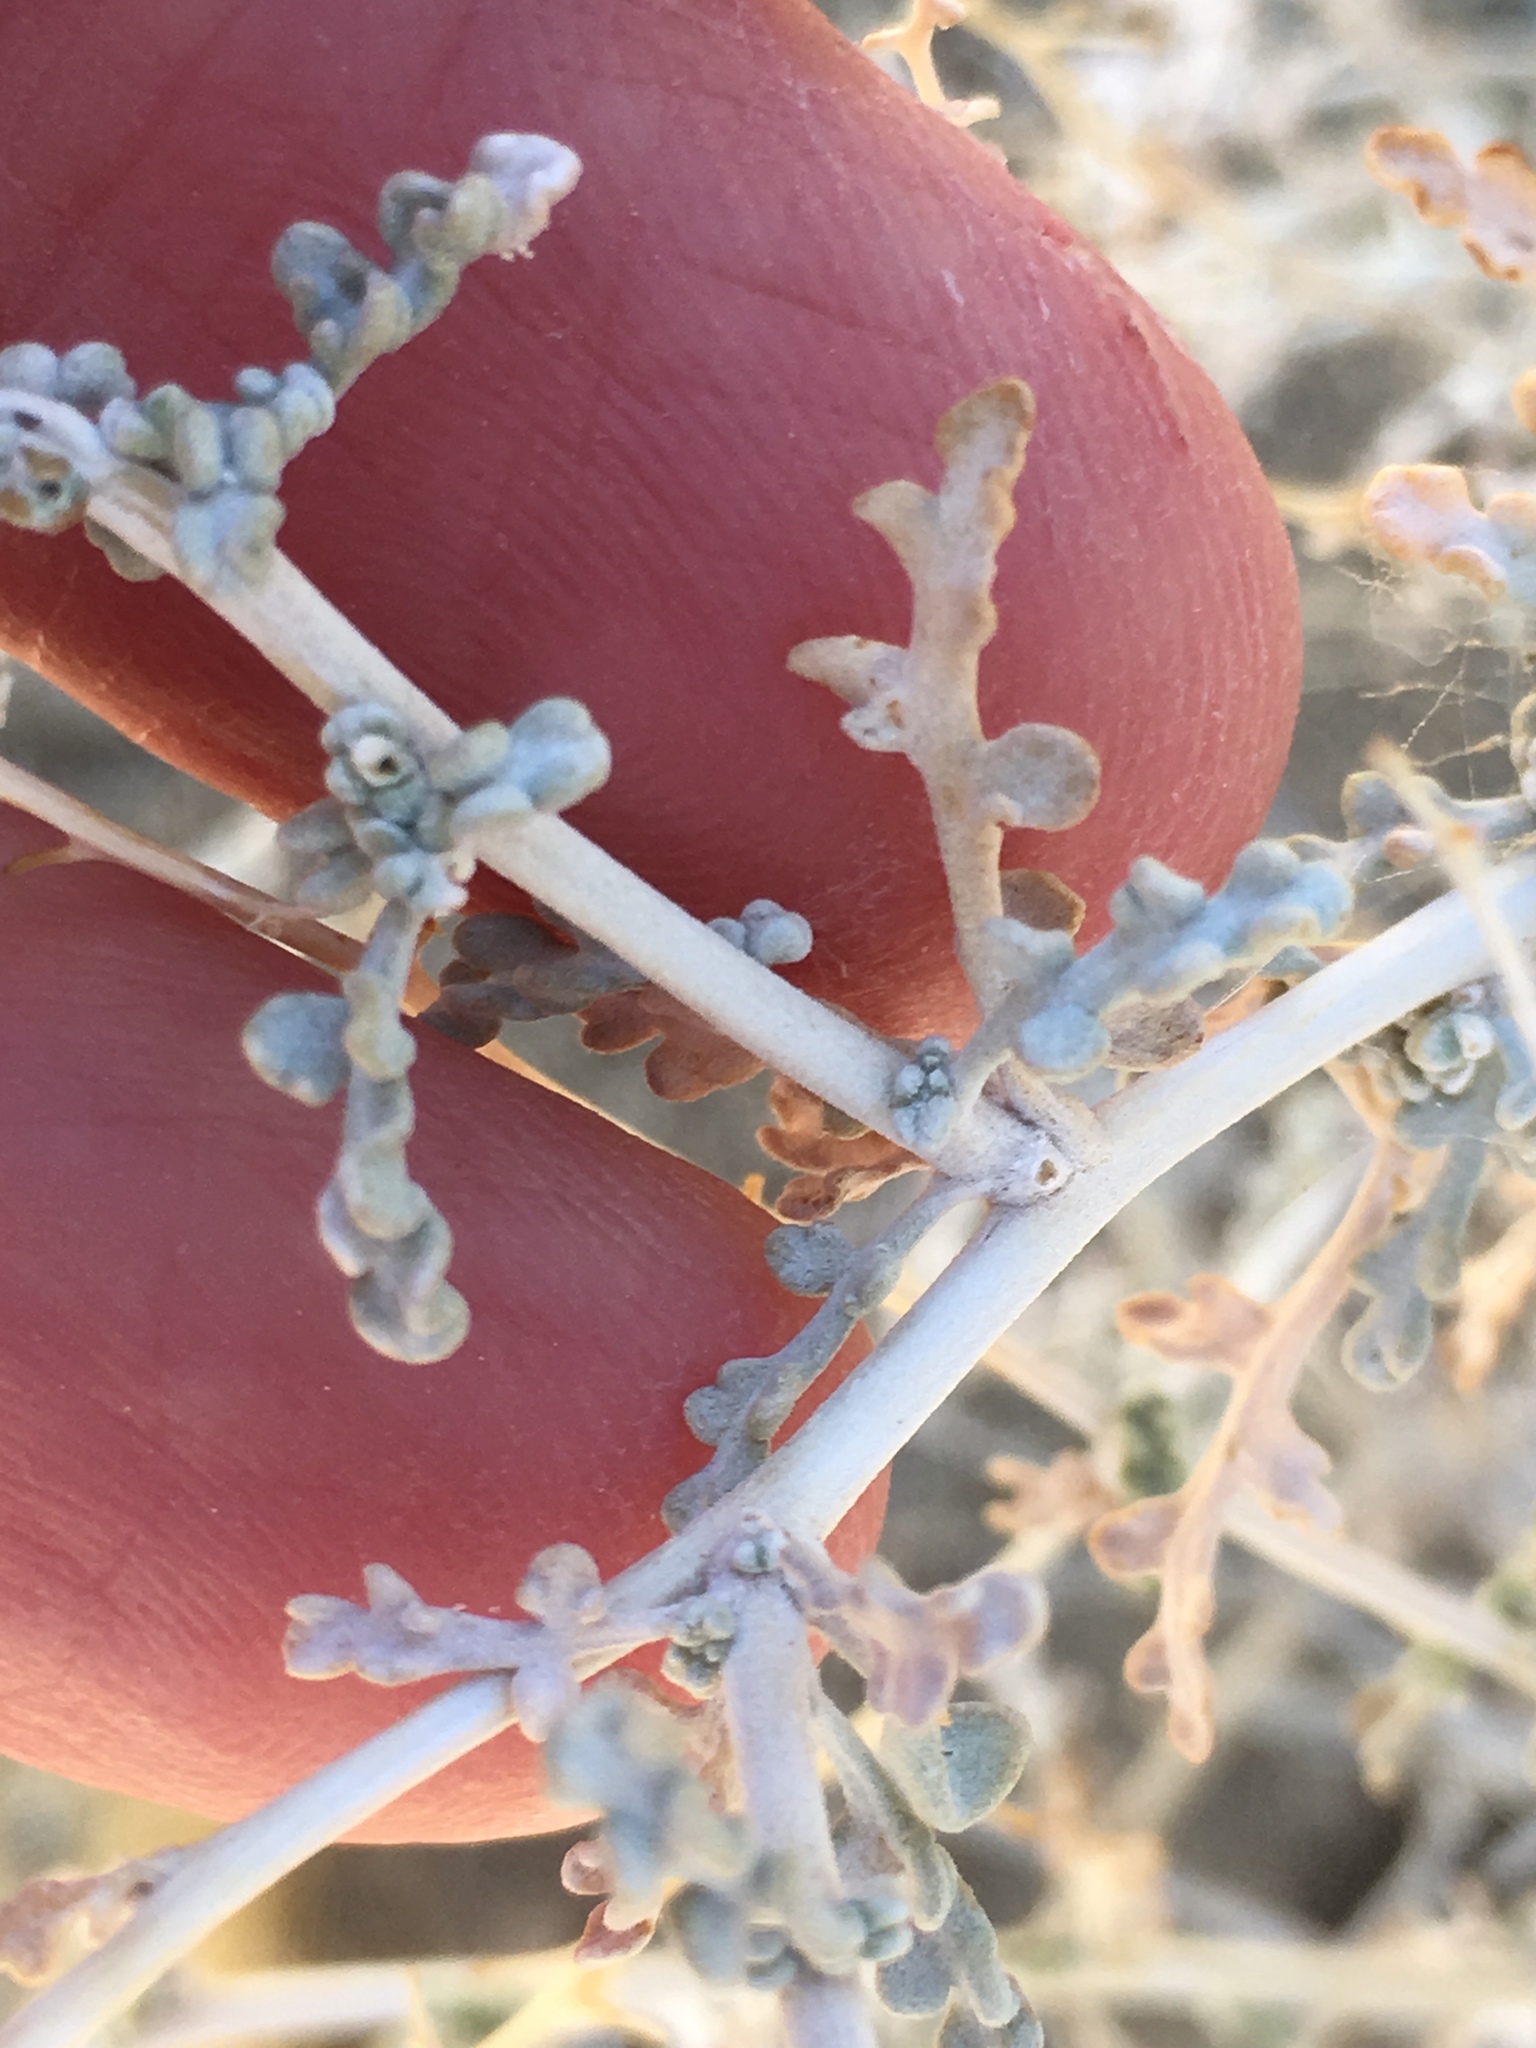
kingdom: Plantae
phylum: Tracheophyta
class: Magnoliopsida
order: Asterales
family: Asteraceae
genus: Ambrosia
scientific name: Ambrosia dumosa
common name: Bur-sage
